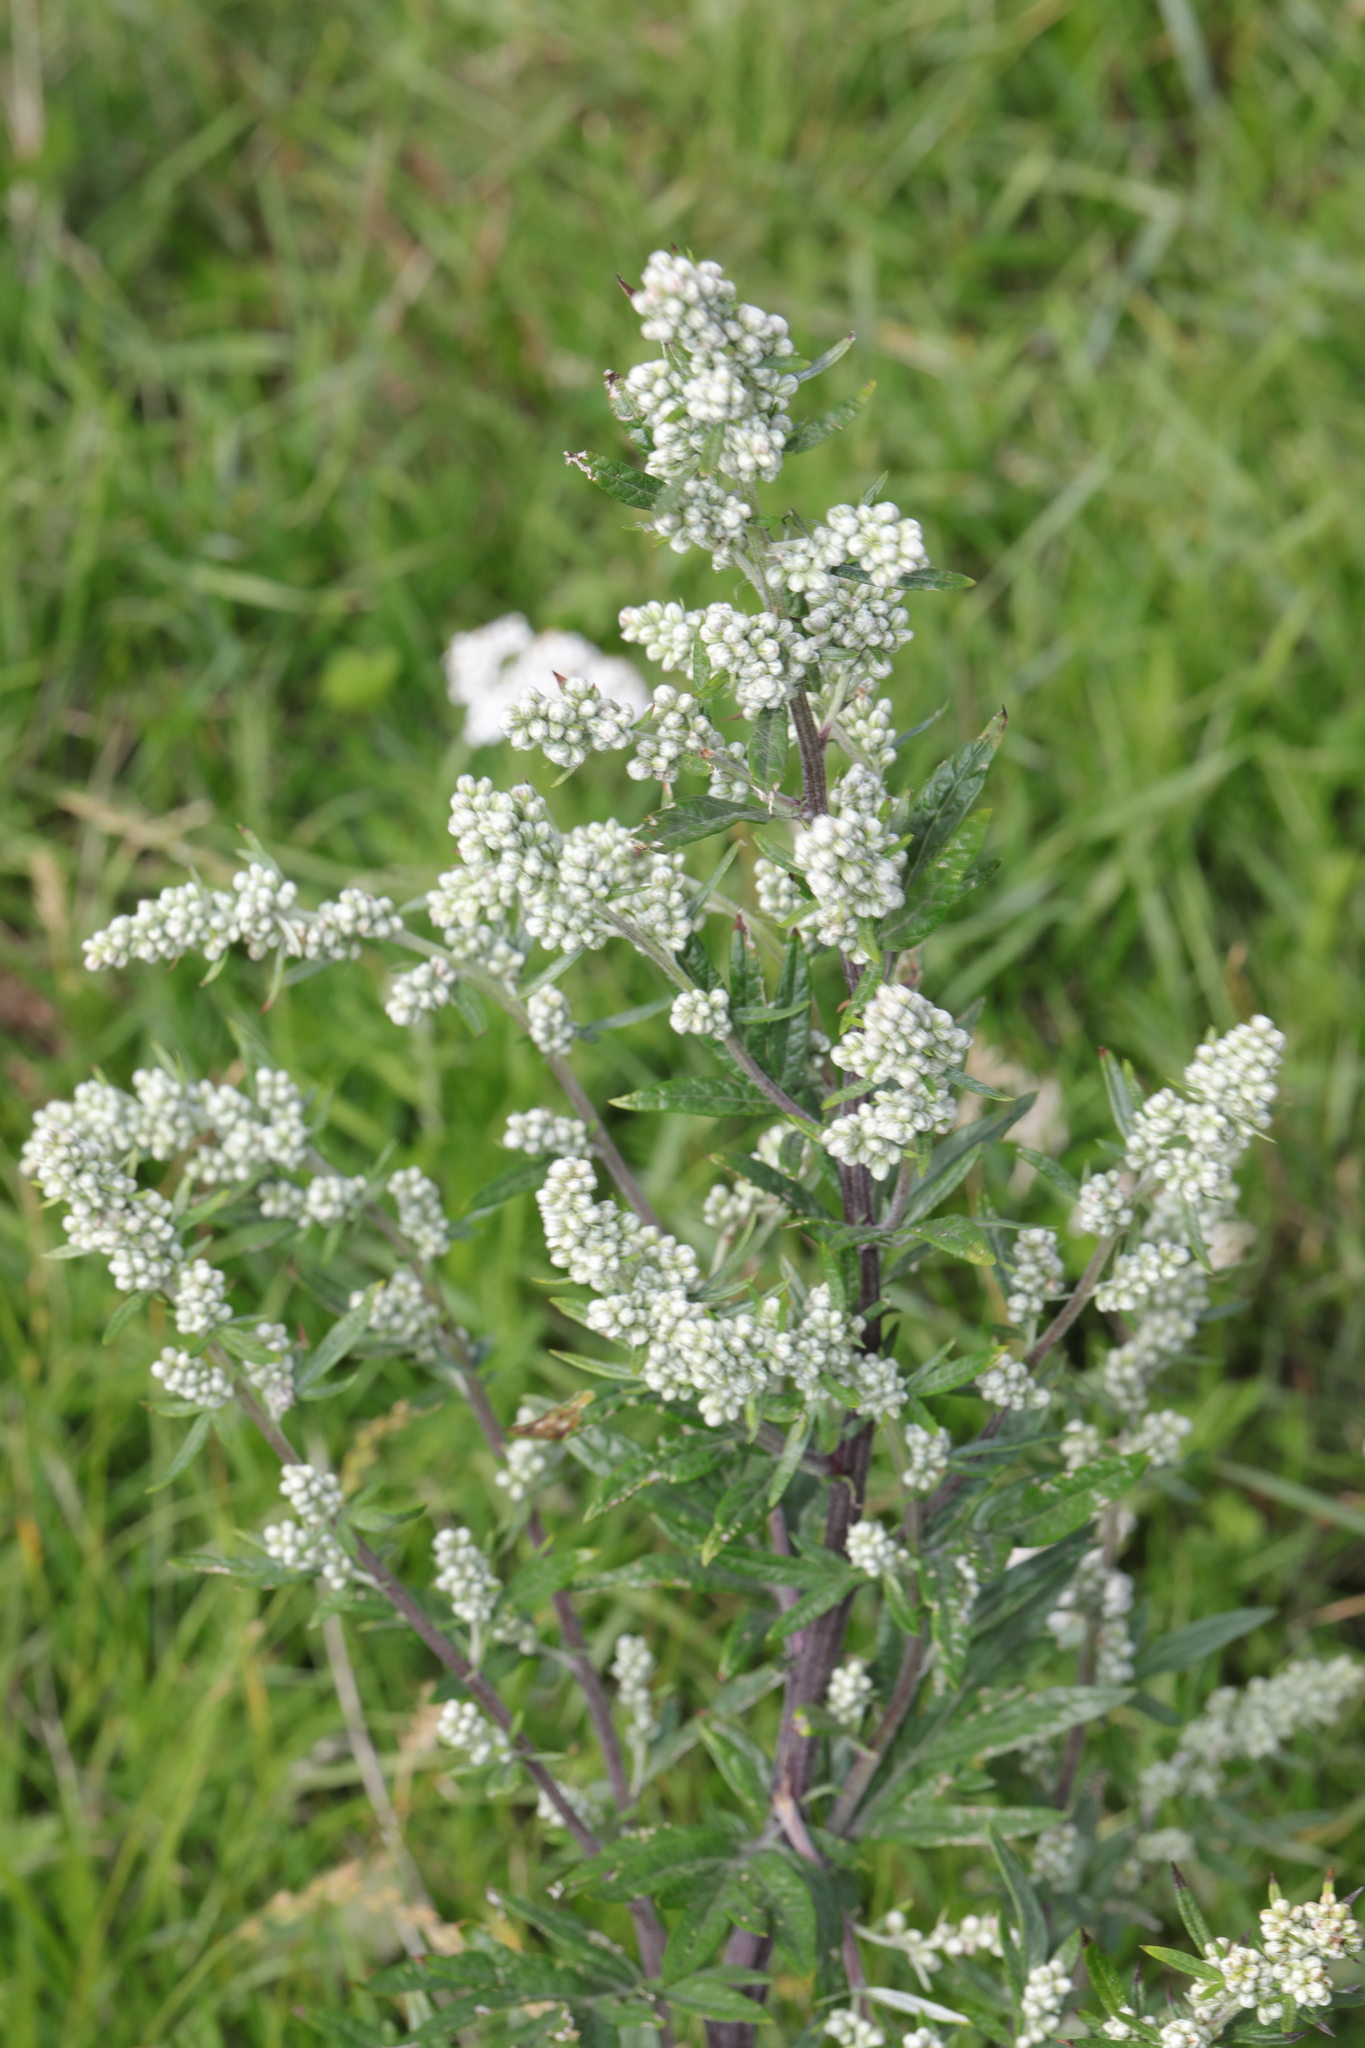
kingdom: Plantae
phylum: Tracheophyta
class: Magnoliopsida
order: Asterales
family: Asteraceae
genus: Artemisia
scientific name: Artemisia vulgaris
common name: Mugwort
